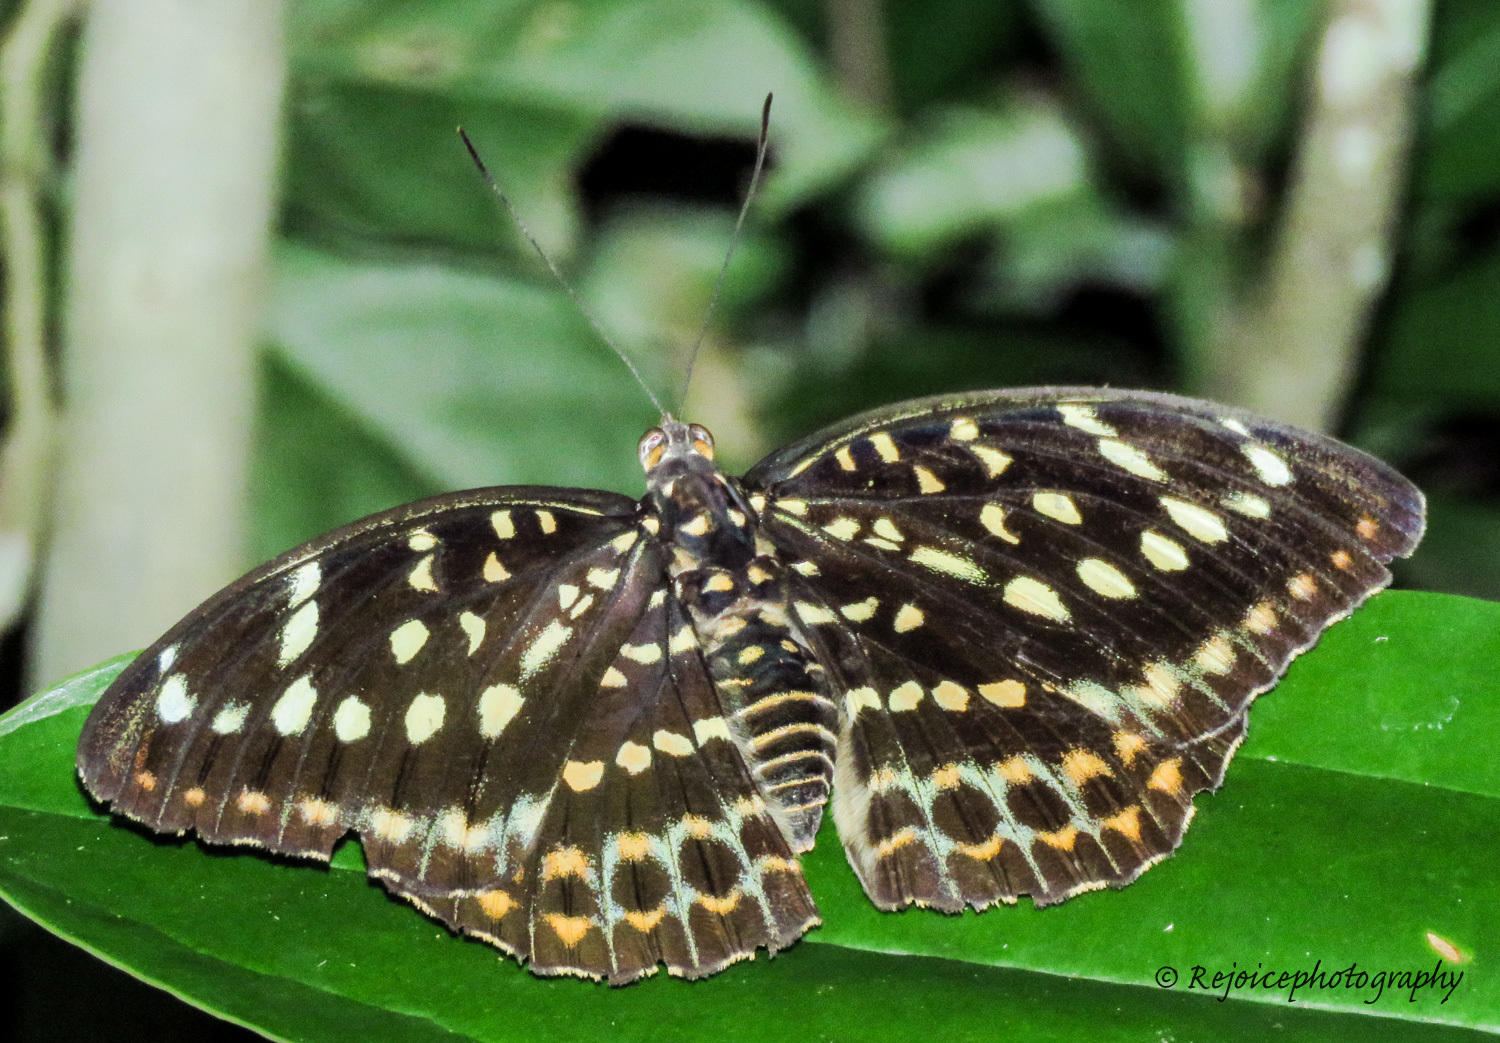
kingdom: Animalia
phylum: Arthropoda
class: Insecta
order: Lepidoptera
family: Nymphalidae
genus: Lexias
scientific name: Lexias dirtea
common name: Black-tipped archduke
